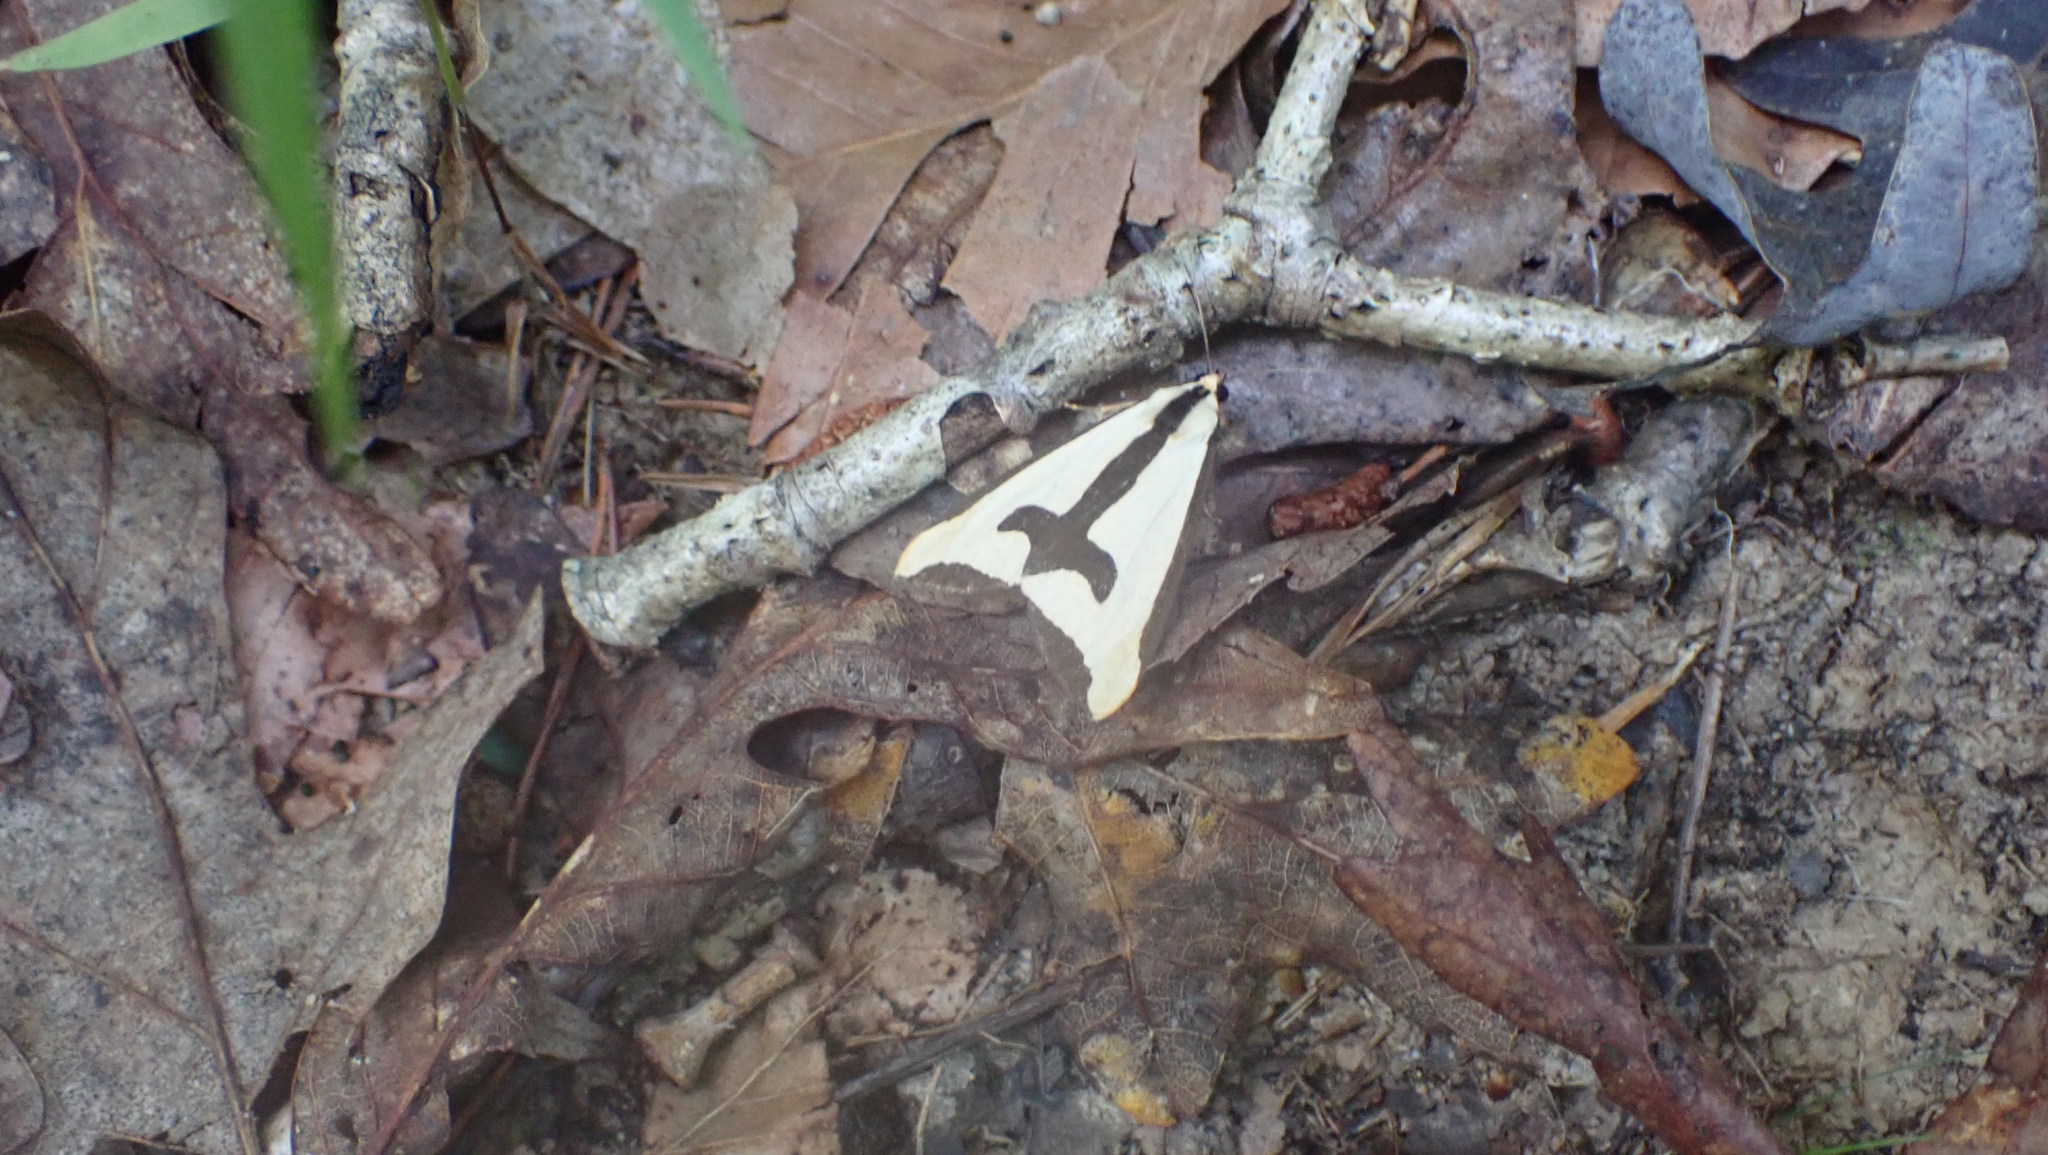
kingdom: Animalia
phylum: Arthropoda
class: Insecta
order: Lepidoptera
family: Erebidae
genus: Haploa
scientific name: Haploa clymene
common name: Clymene moth
